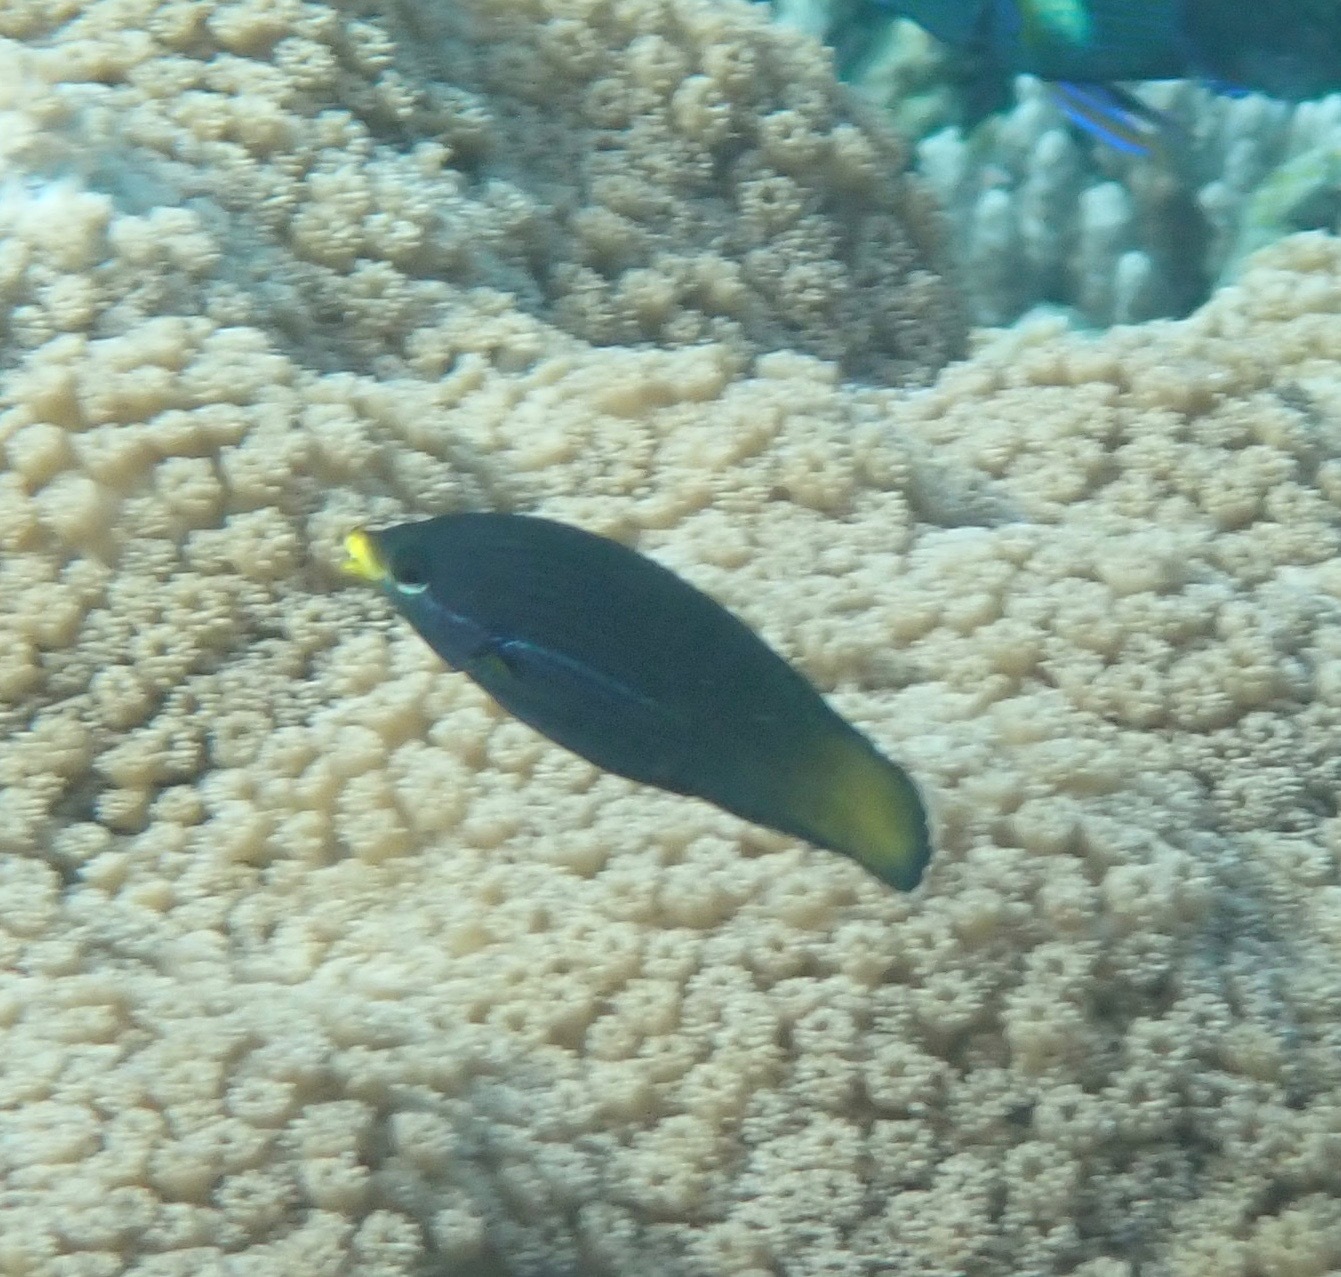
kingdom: Animalia
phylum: Chordata
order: Perciformes
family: Labridae
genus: Labrichthys
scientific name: Labrichthys unilineatus
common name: Onelined wrasse
